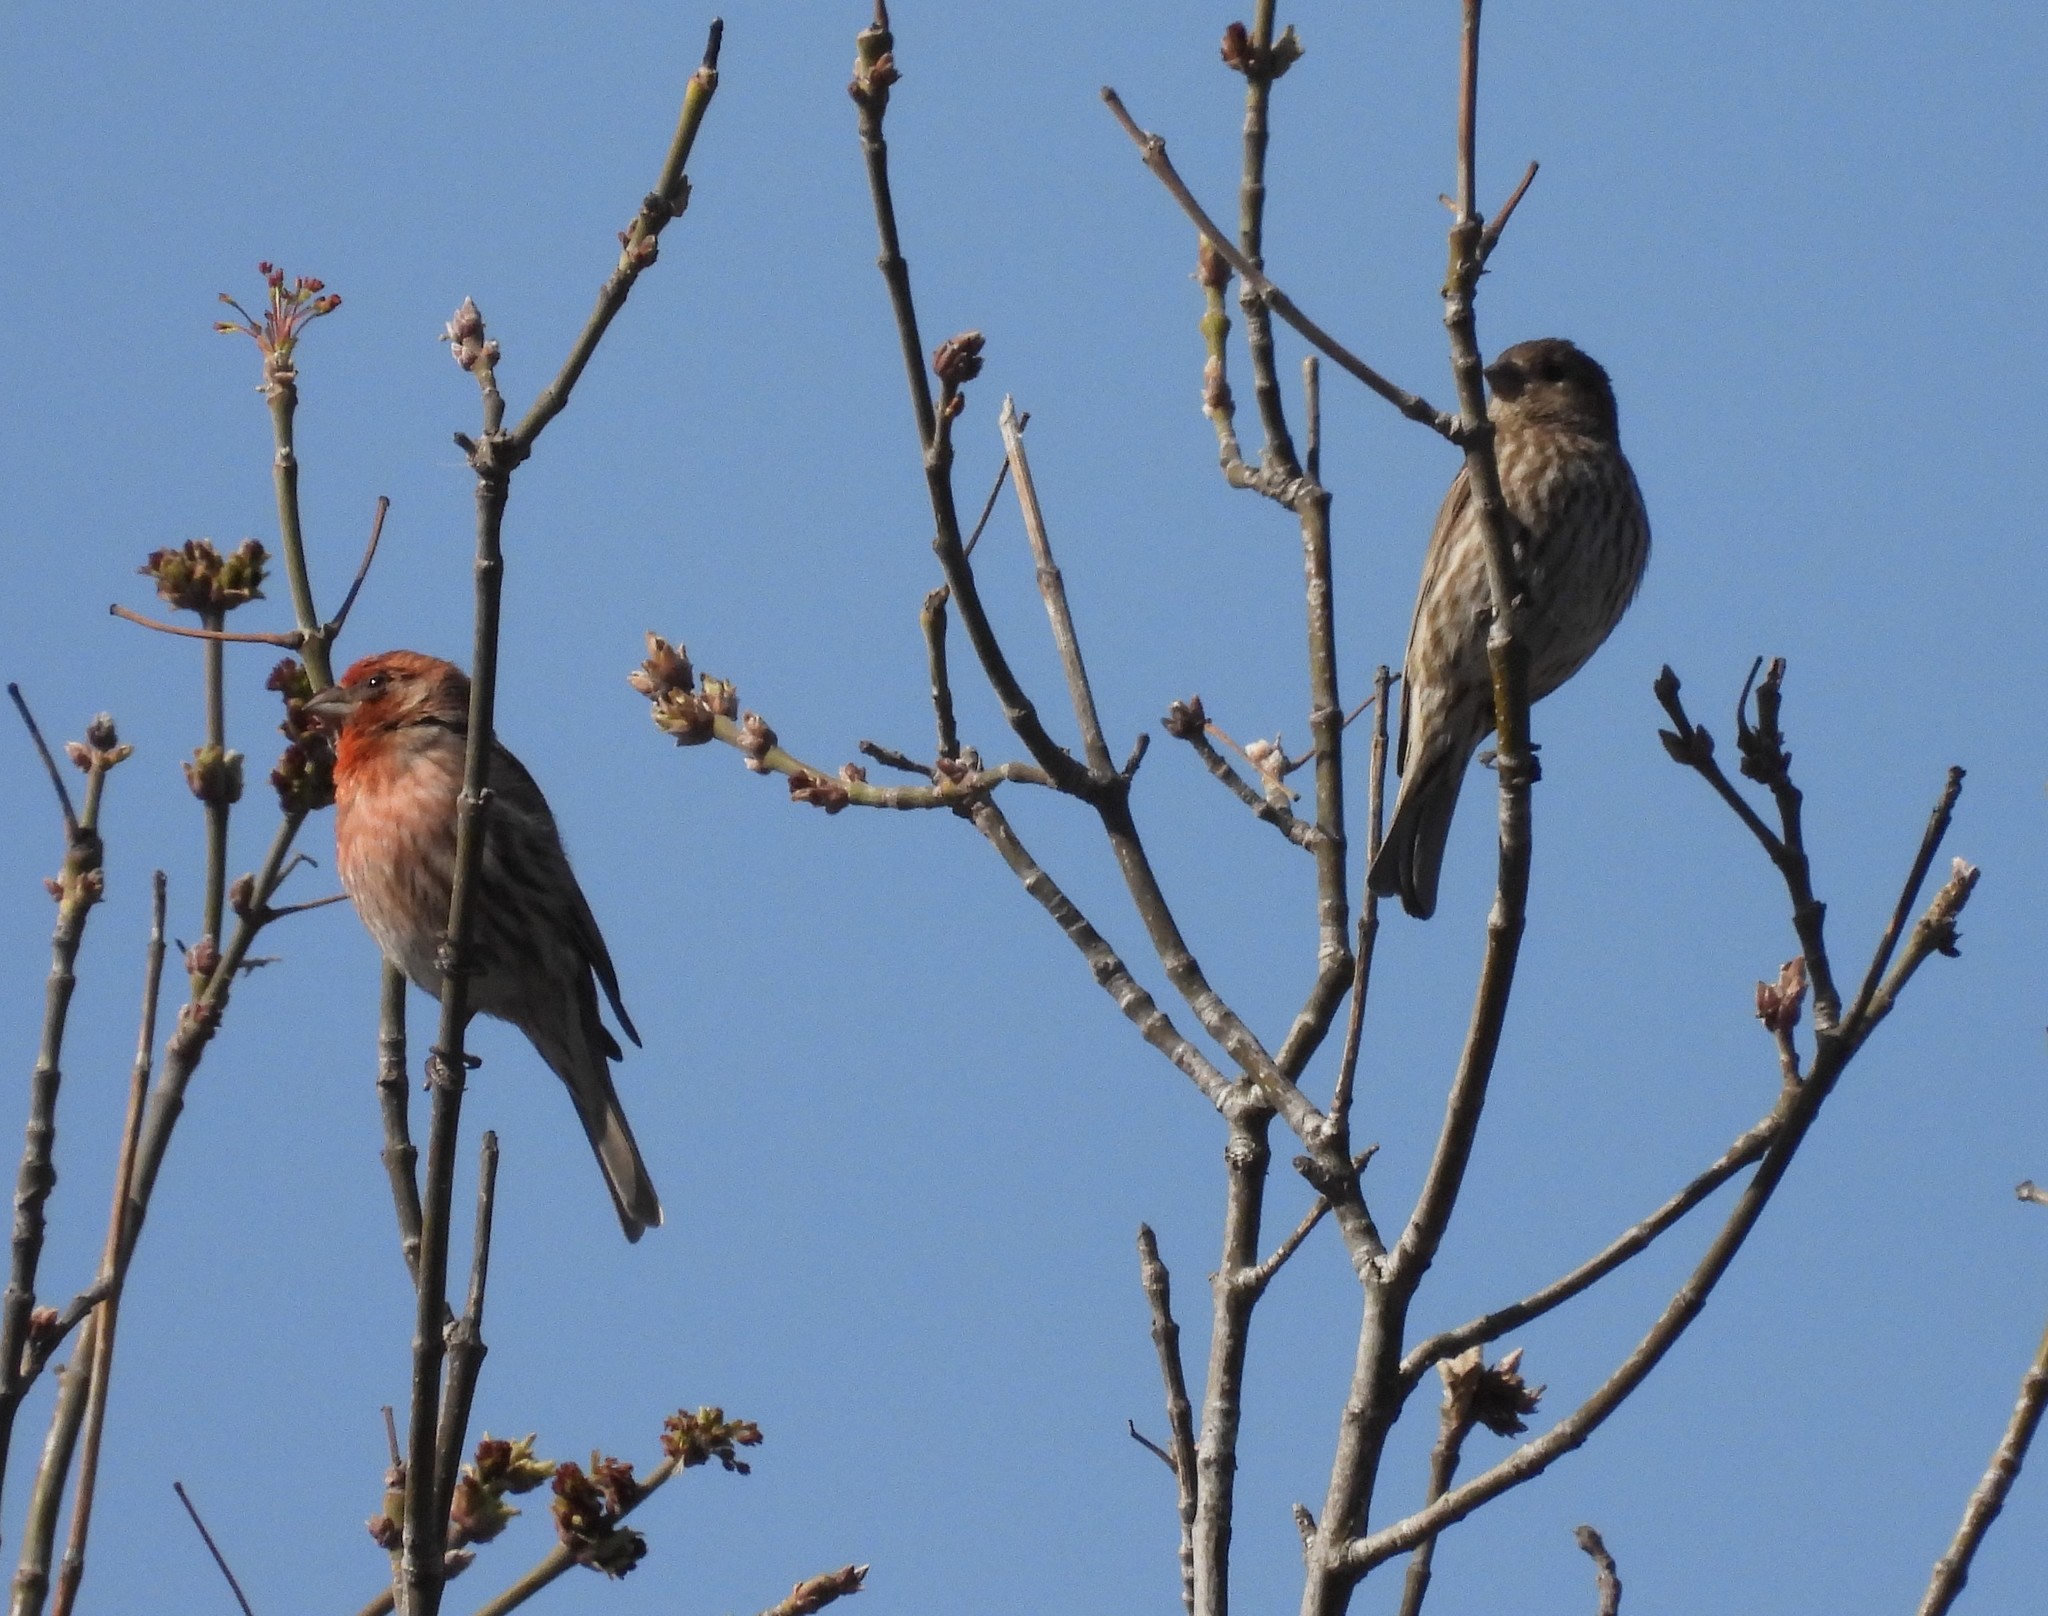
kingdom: Animalia
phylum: Chordata
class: Aves
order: Passeriformes
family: Fringillidae
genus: Haemorhous
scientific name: Haemorhous mexicanus
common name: House finch
